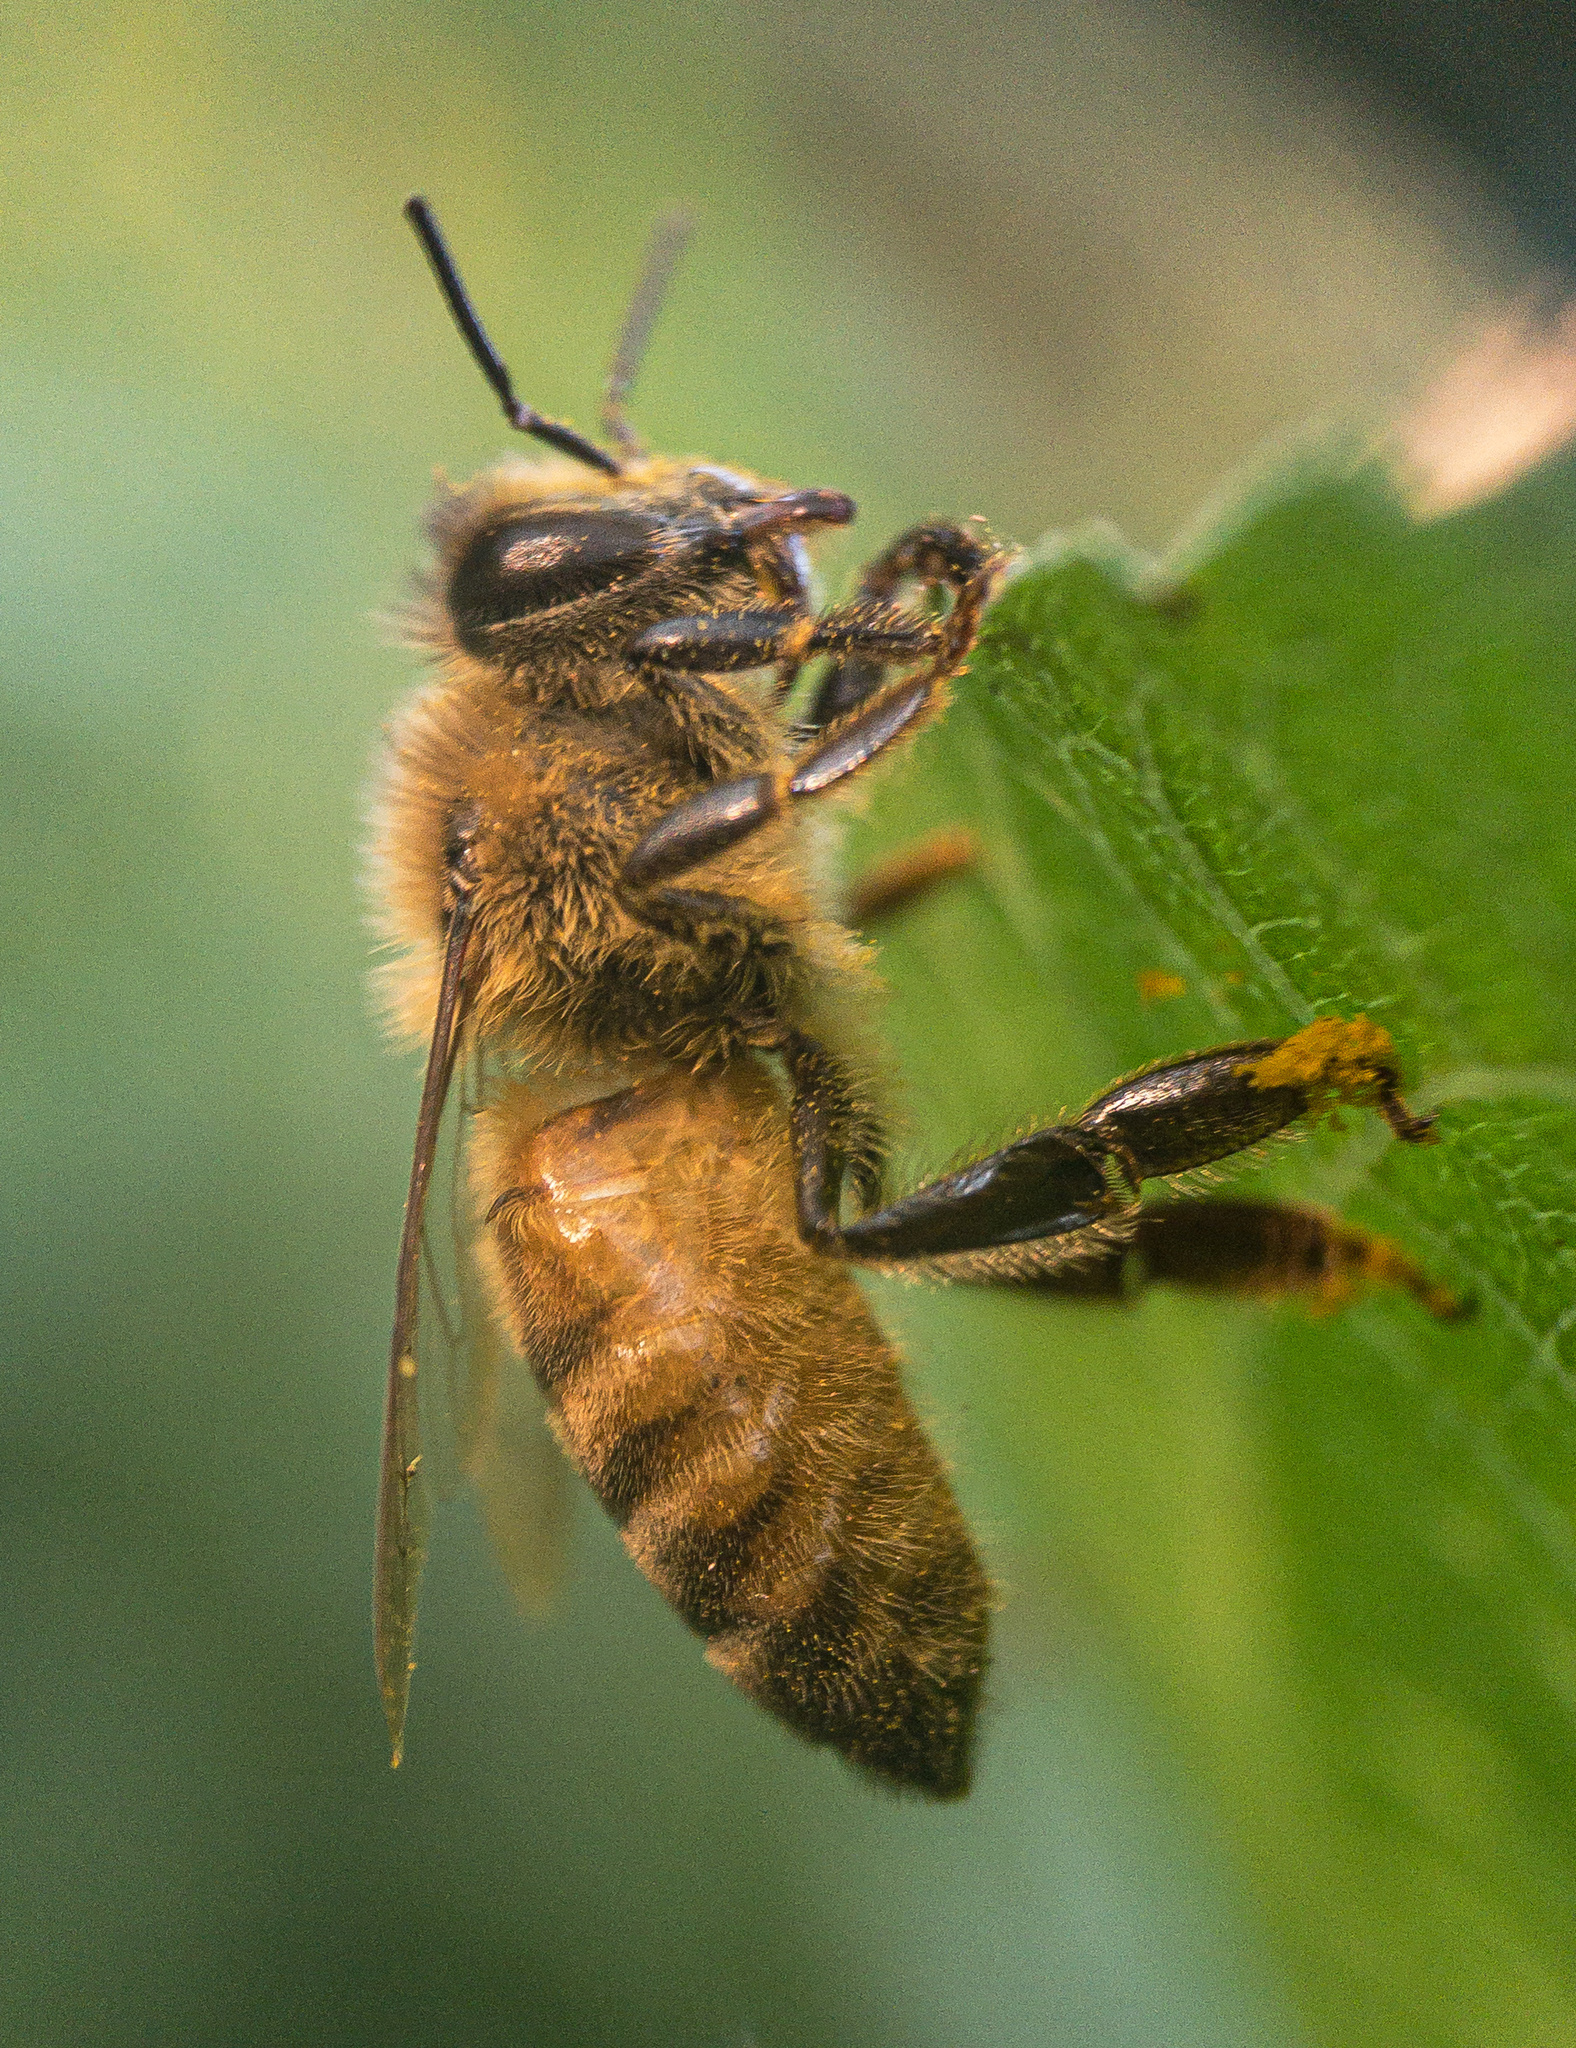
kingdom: Animalia
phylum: Arthropoda
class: Insecta
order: Hymenoptera
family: Apidae
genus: Apis
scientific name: Apis mellifera
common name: Honey bee
